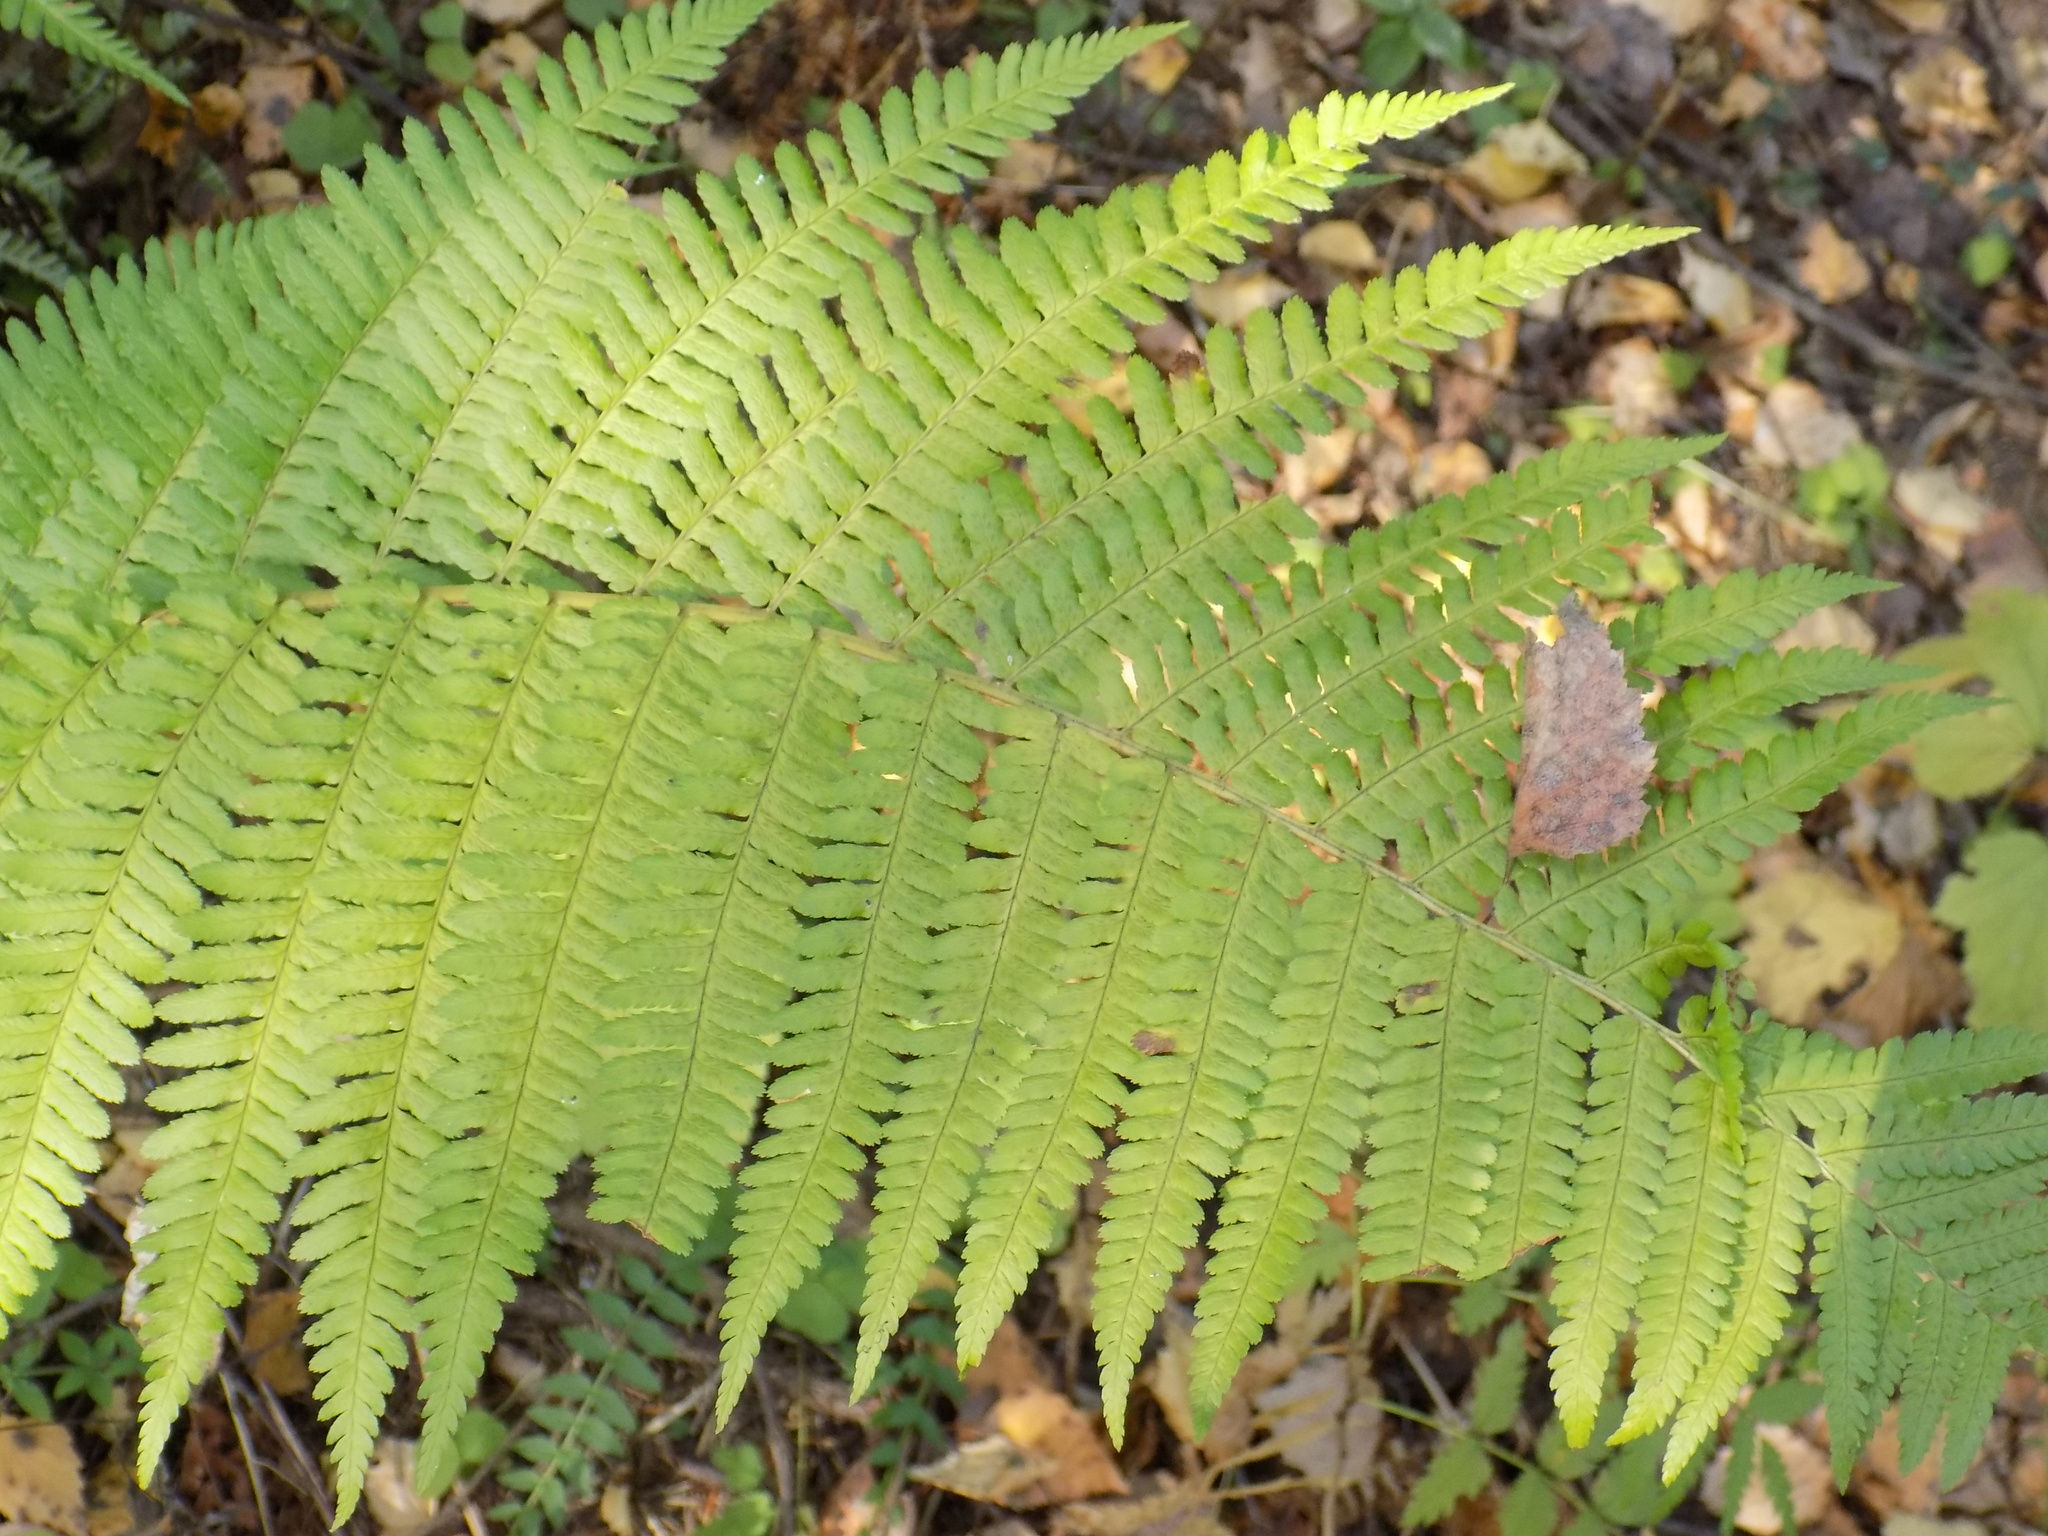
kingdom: Plantae
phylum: Tracheophyta
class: Polypodiopsida
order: Polypodiales
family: Dryopteridaceae
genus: Dryopteris
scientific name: Dryopteris filix-mas
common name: Male fern
